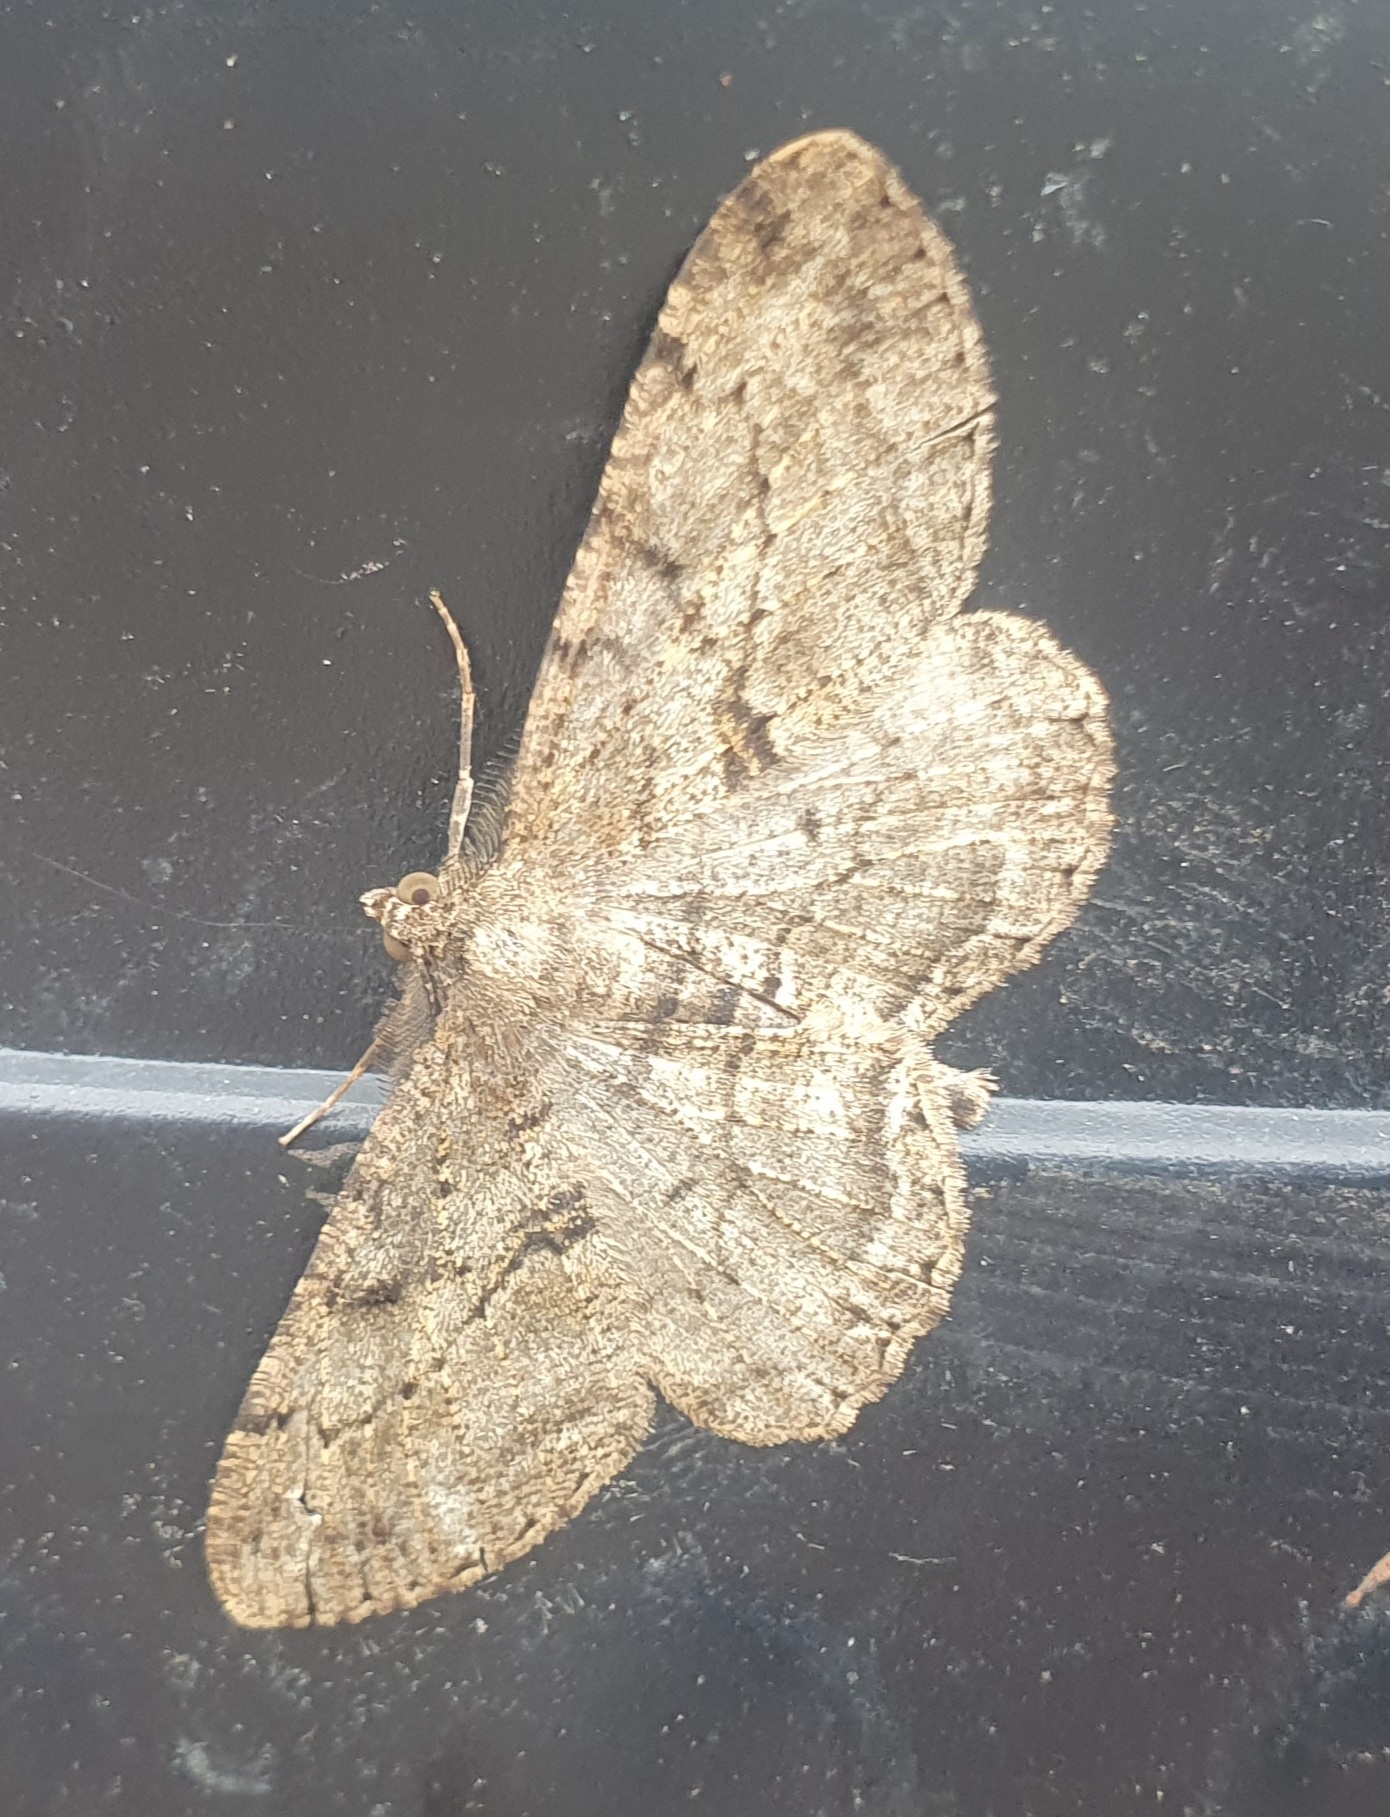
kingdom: Animalia
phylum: Arthropoda
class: Insecta
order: Lepidoptera
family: Geometridae
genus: Peribatodes
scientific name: Peribatodes rhomboidaria
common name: Willow beauty
